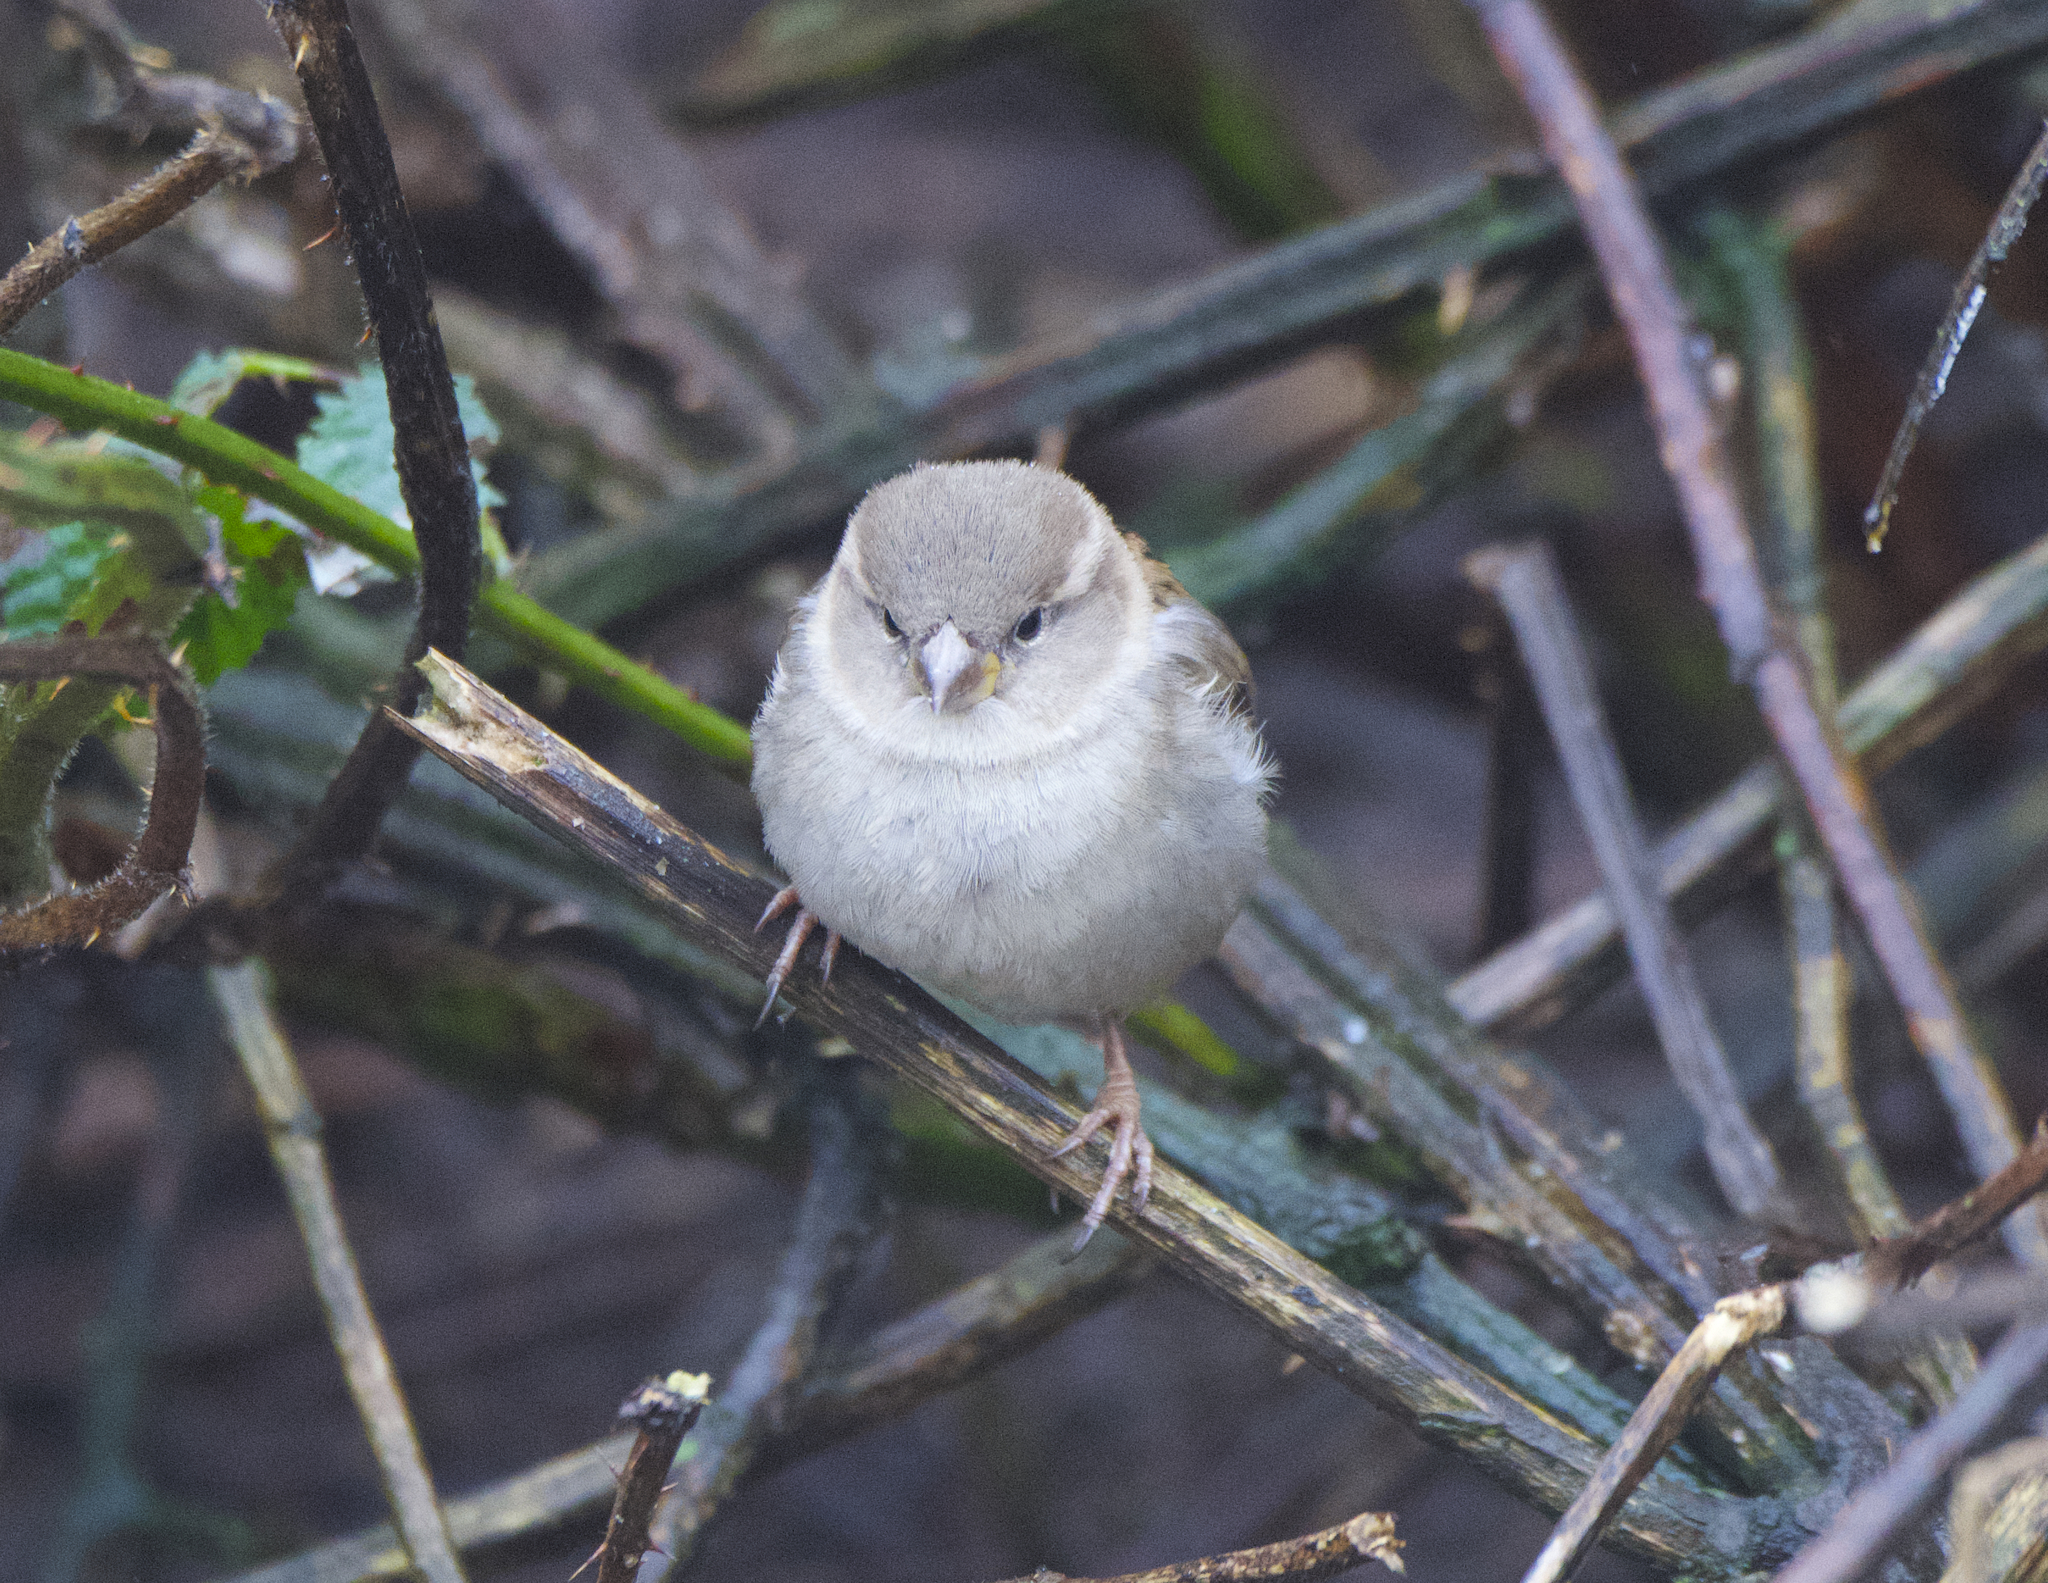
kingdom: Animalia
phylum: Chordata
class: Aves
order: Passeriformes
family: Passeridae
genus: Passer
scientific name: Passer domesticus
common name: House sparrow
